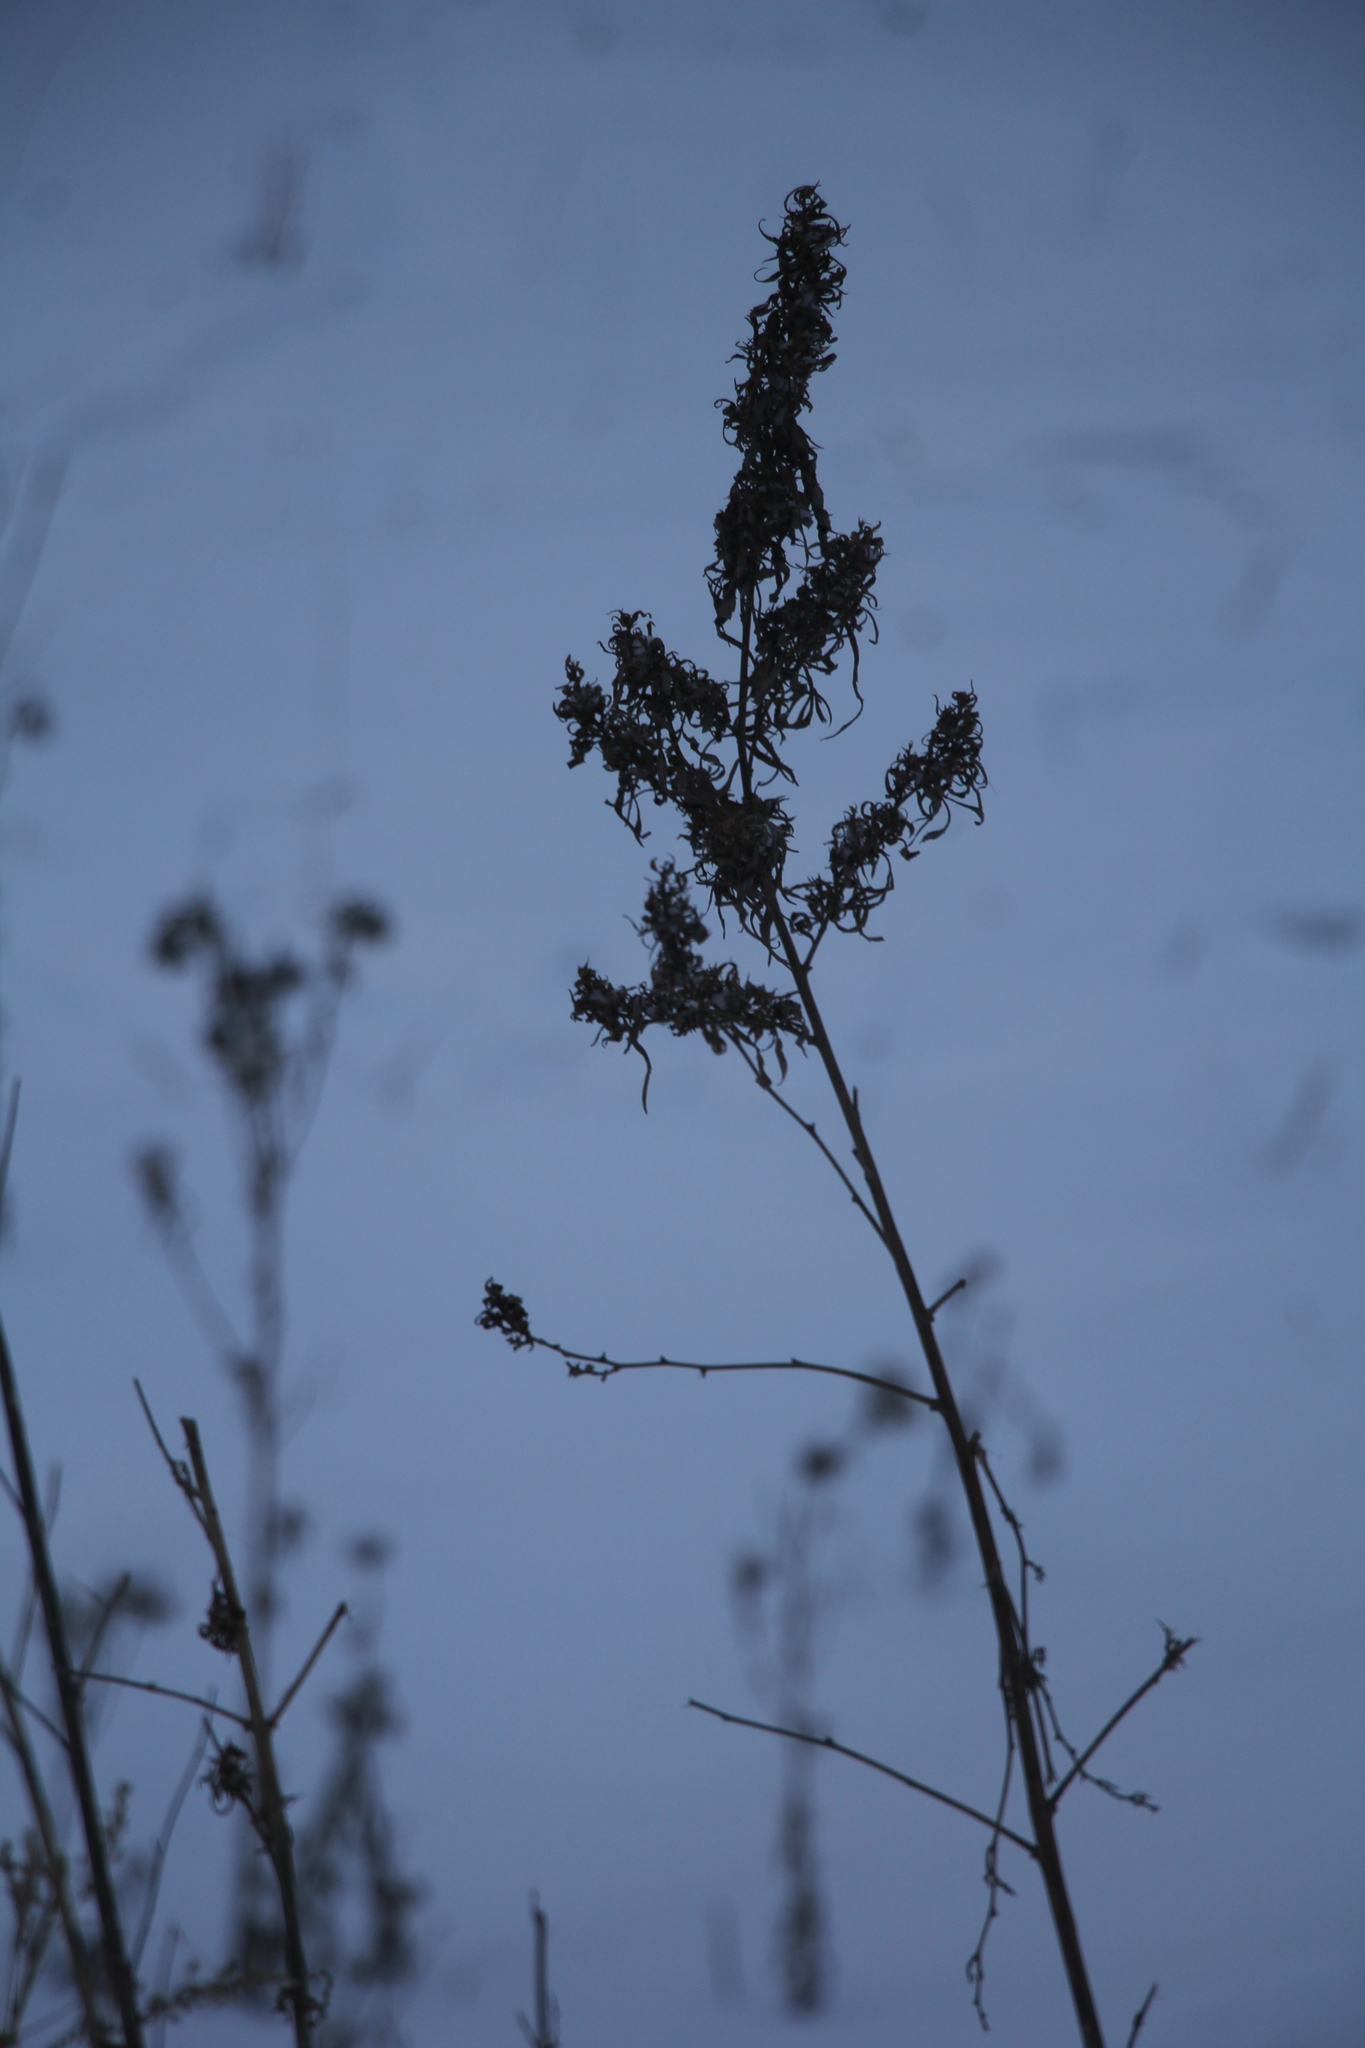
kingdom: Plantae
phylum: Tracheophyta
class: Magnoliopsida
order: Rosales
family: Cannabaceae
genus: Cannabis
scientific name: Cannabis sativa
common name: Hemp
